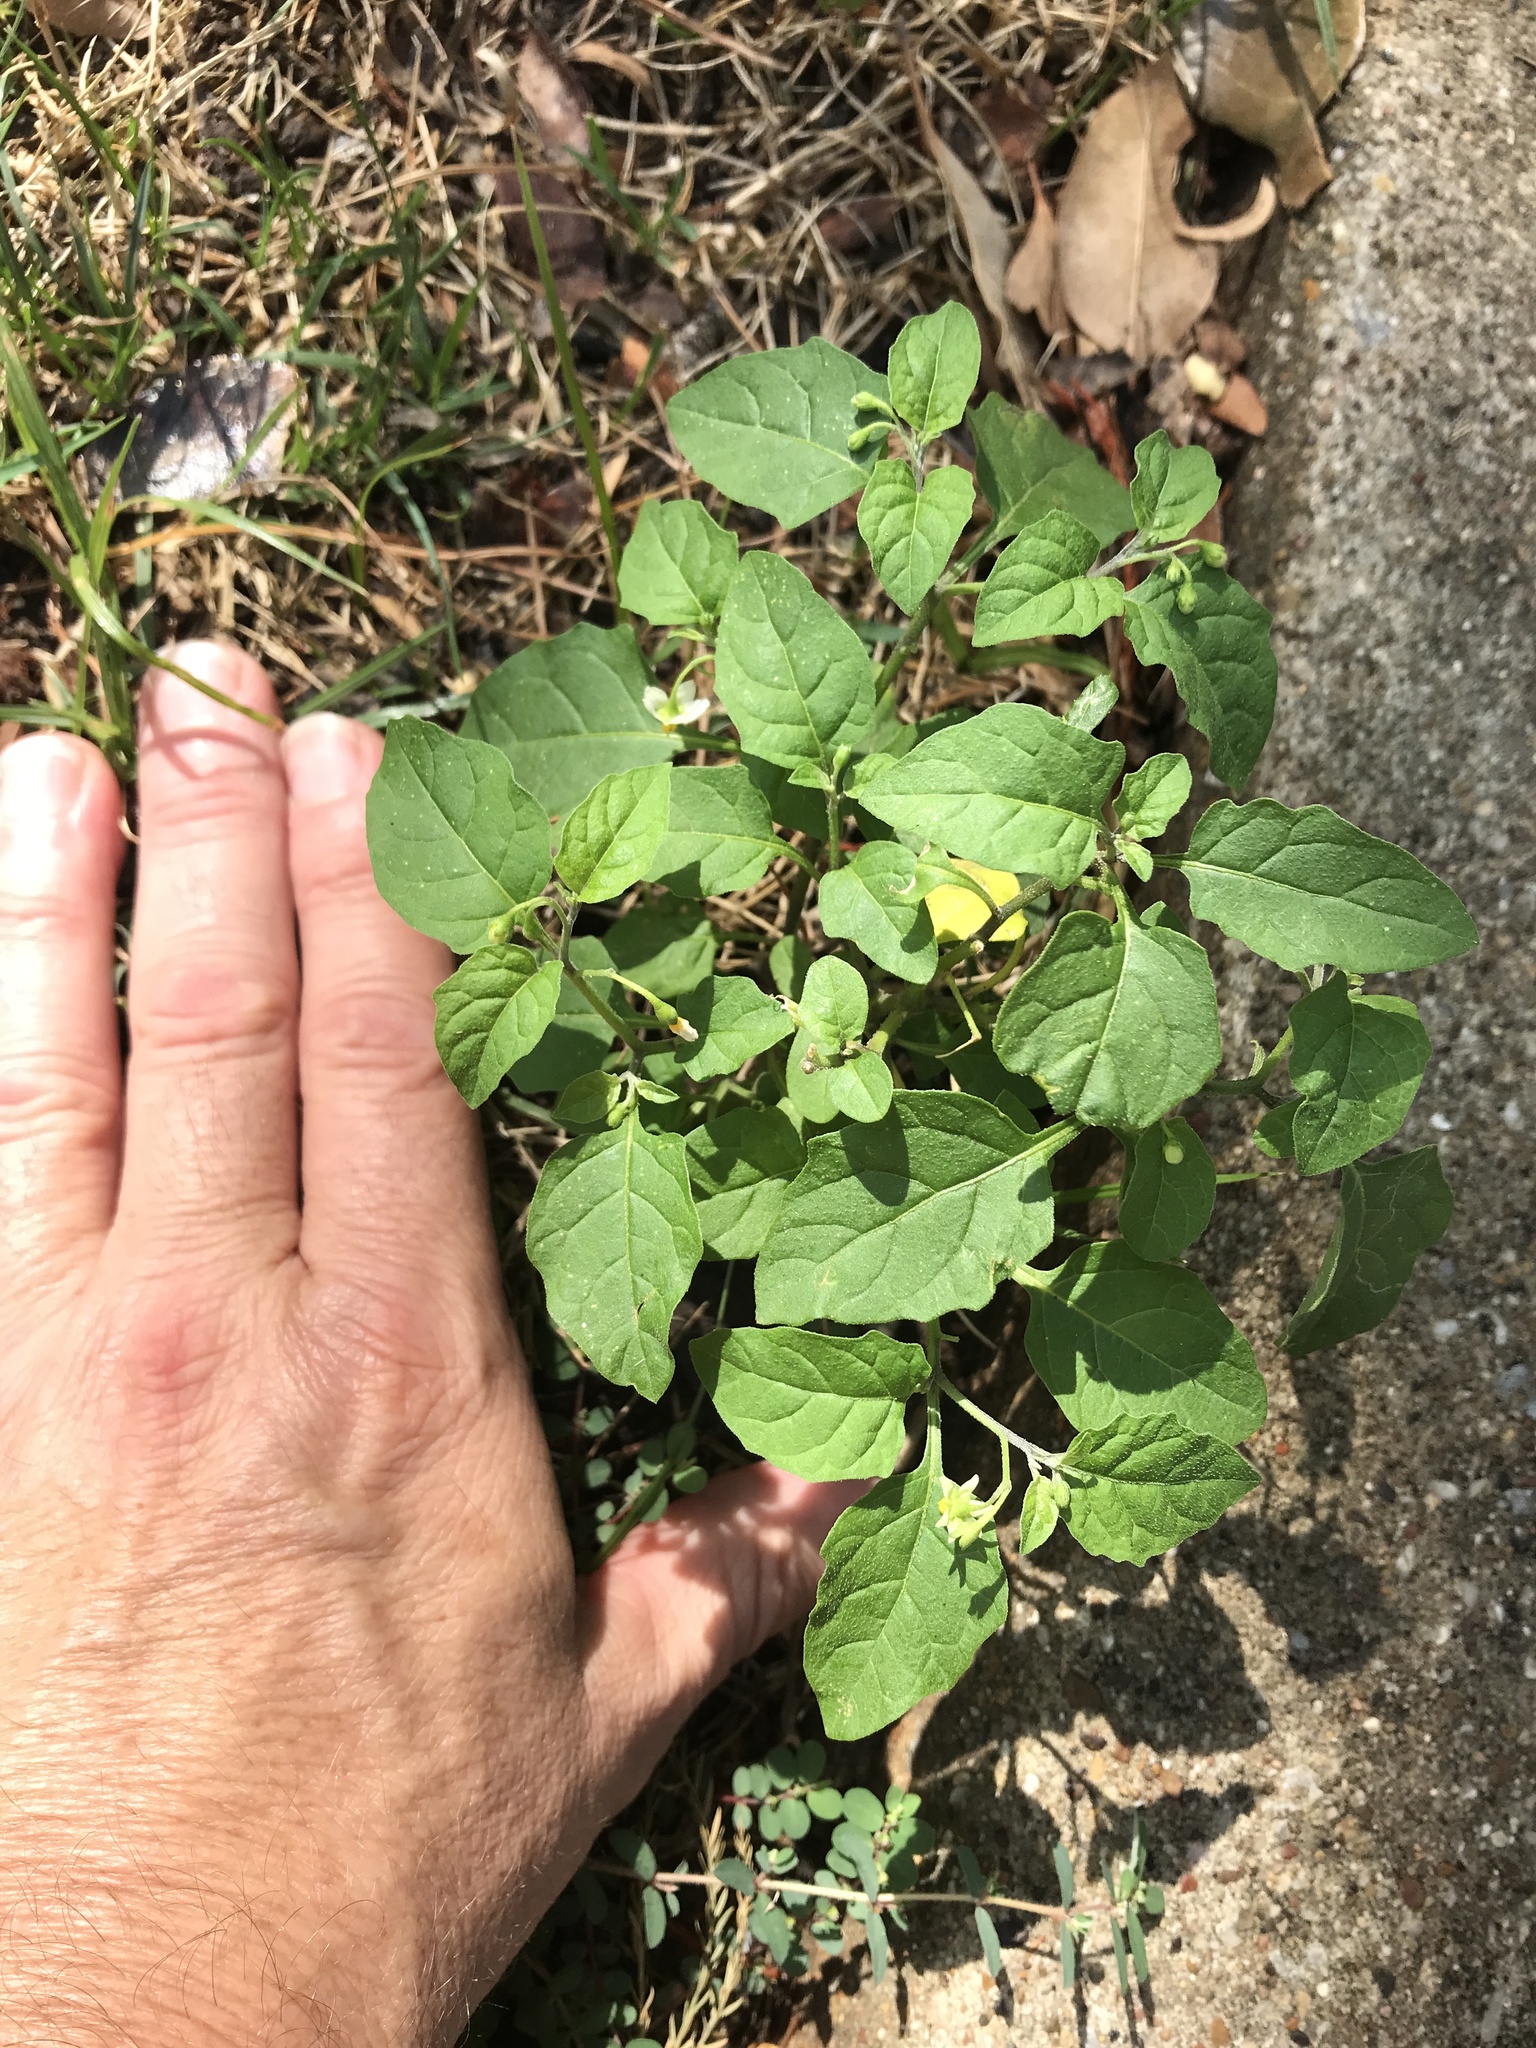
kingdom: Plantae
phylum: Tracheophyta
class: Magnoliopsida
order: Solanales
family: Solanaceae
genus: Solanum
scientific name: Solanum emulans
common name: Eastern black nightshade
